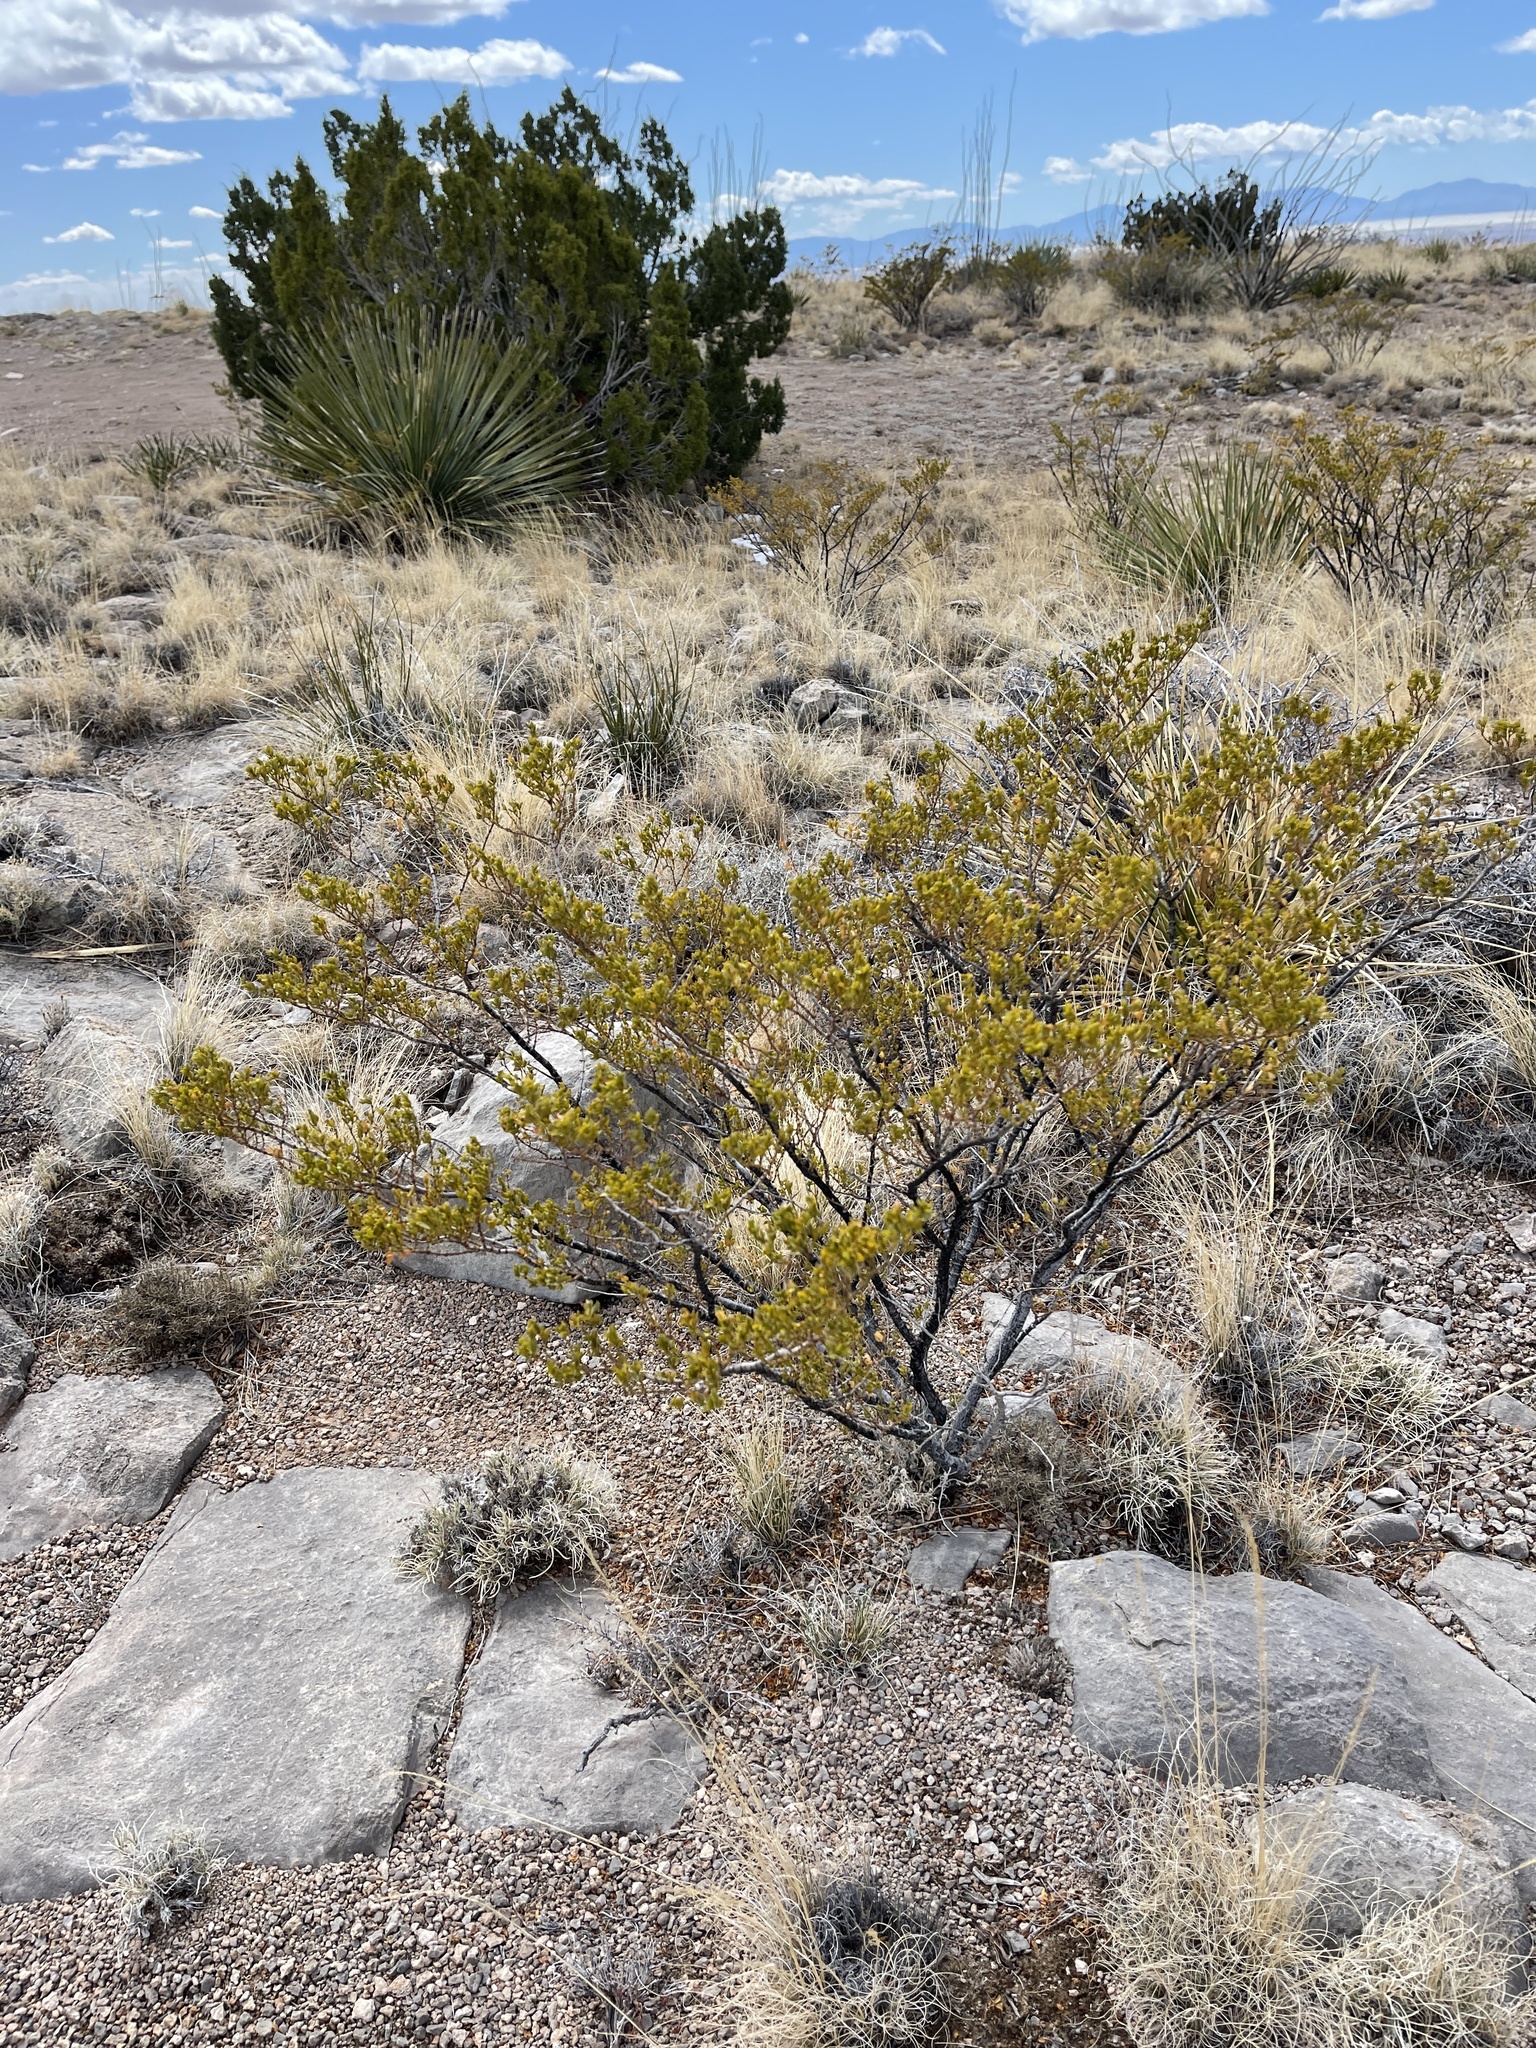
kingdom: Plantae
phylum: Tracheophyta
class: Magnoliopsida
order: Zygophyllales
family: Zygophyllaceae
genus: Larrea
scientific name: Larrea tridentata
